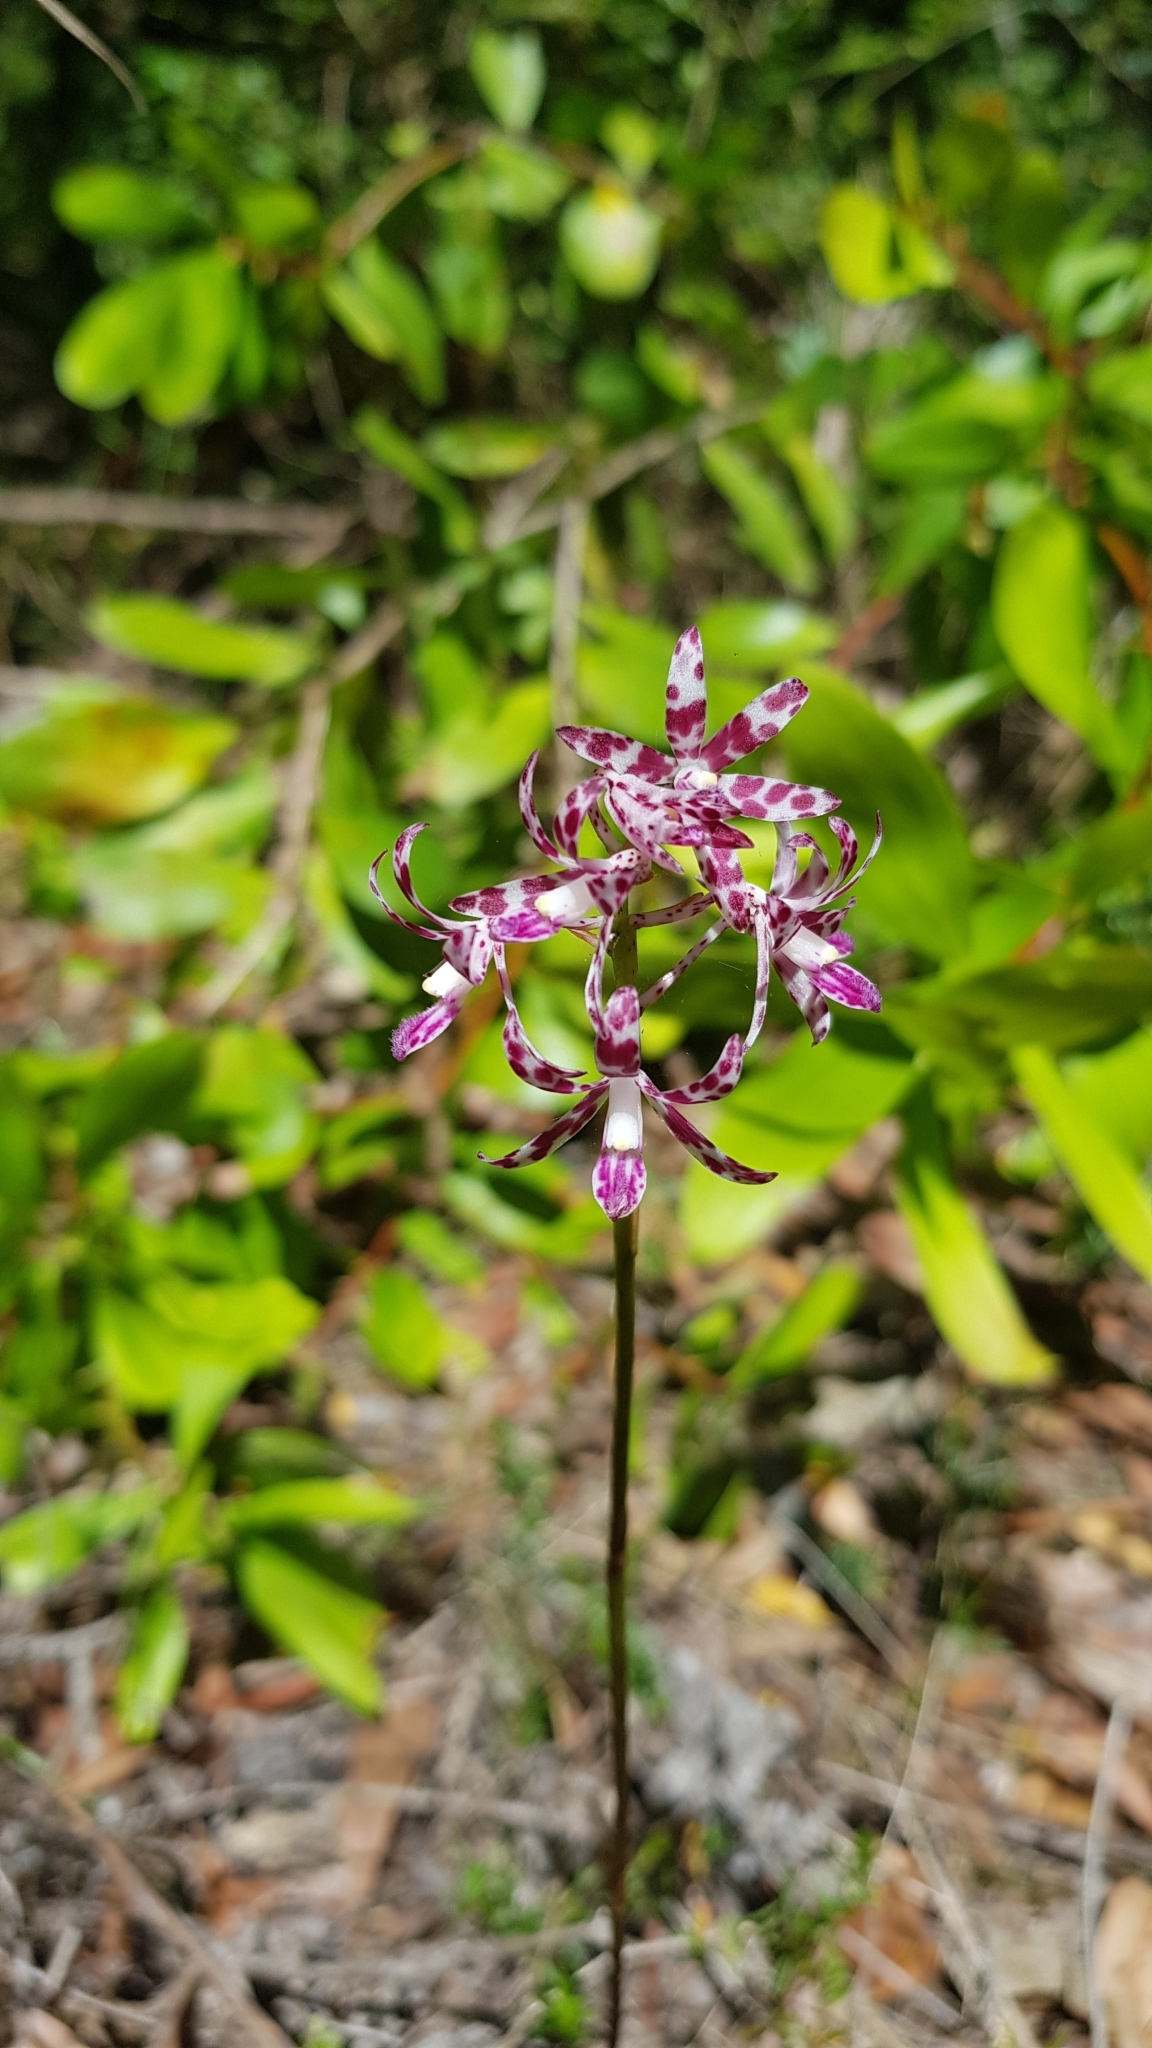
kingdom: Plantae
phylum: Tracheophyta
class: Liliopsida
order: Asparagales
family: Orchidaceae
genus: Dipodium
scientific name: Dipodium variegatum
